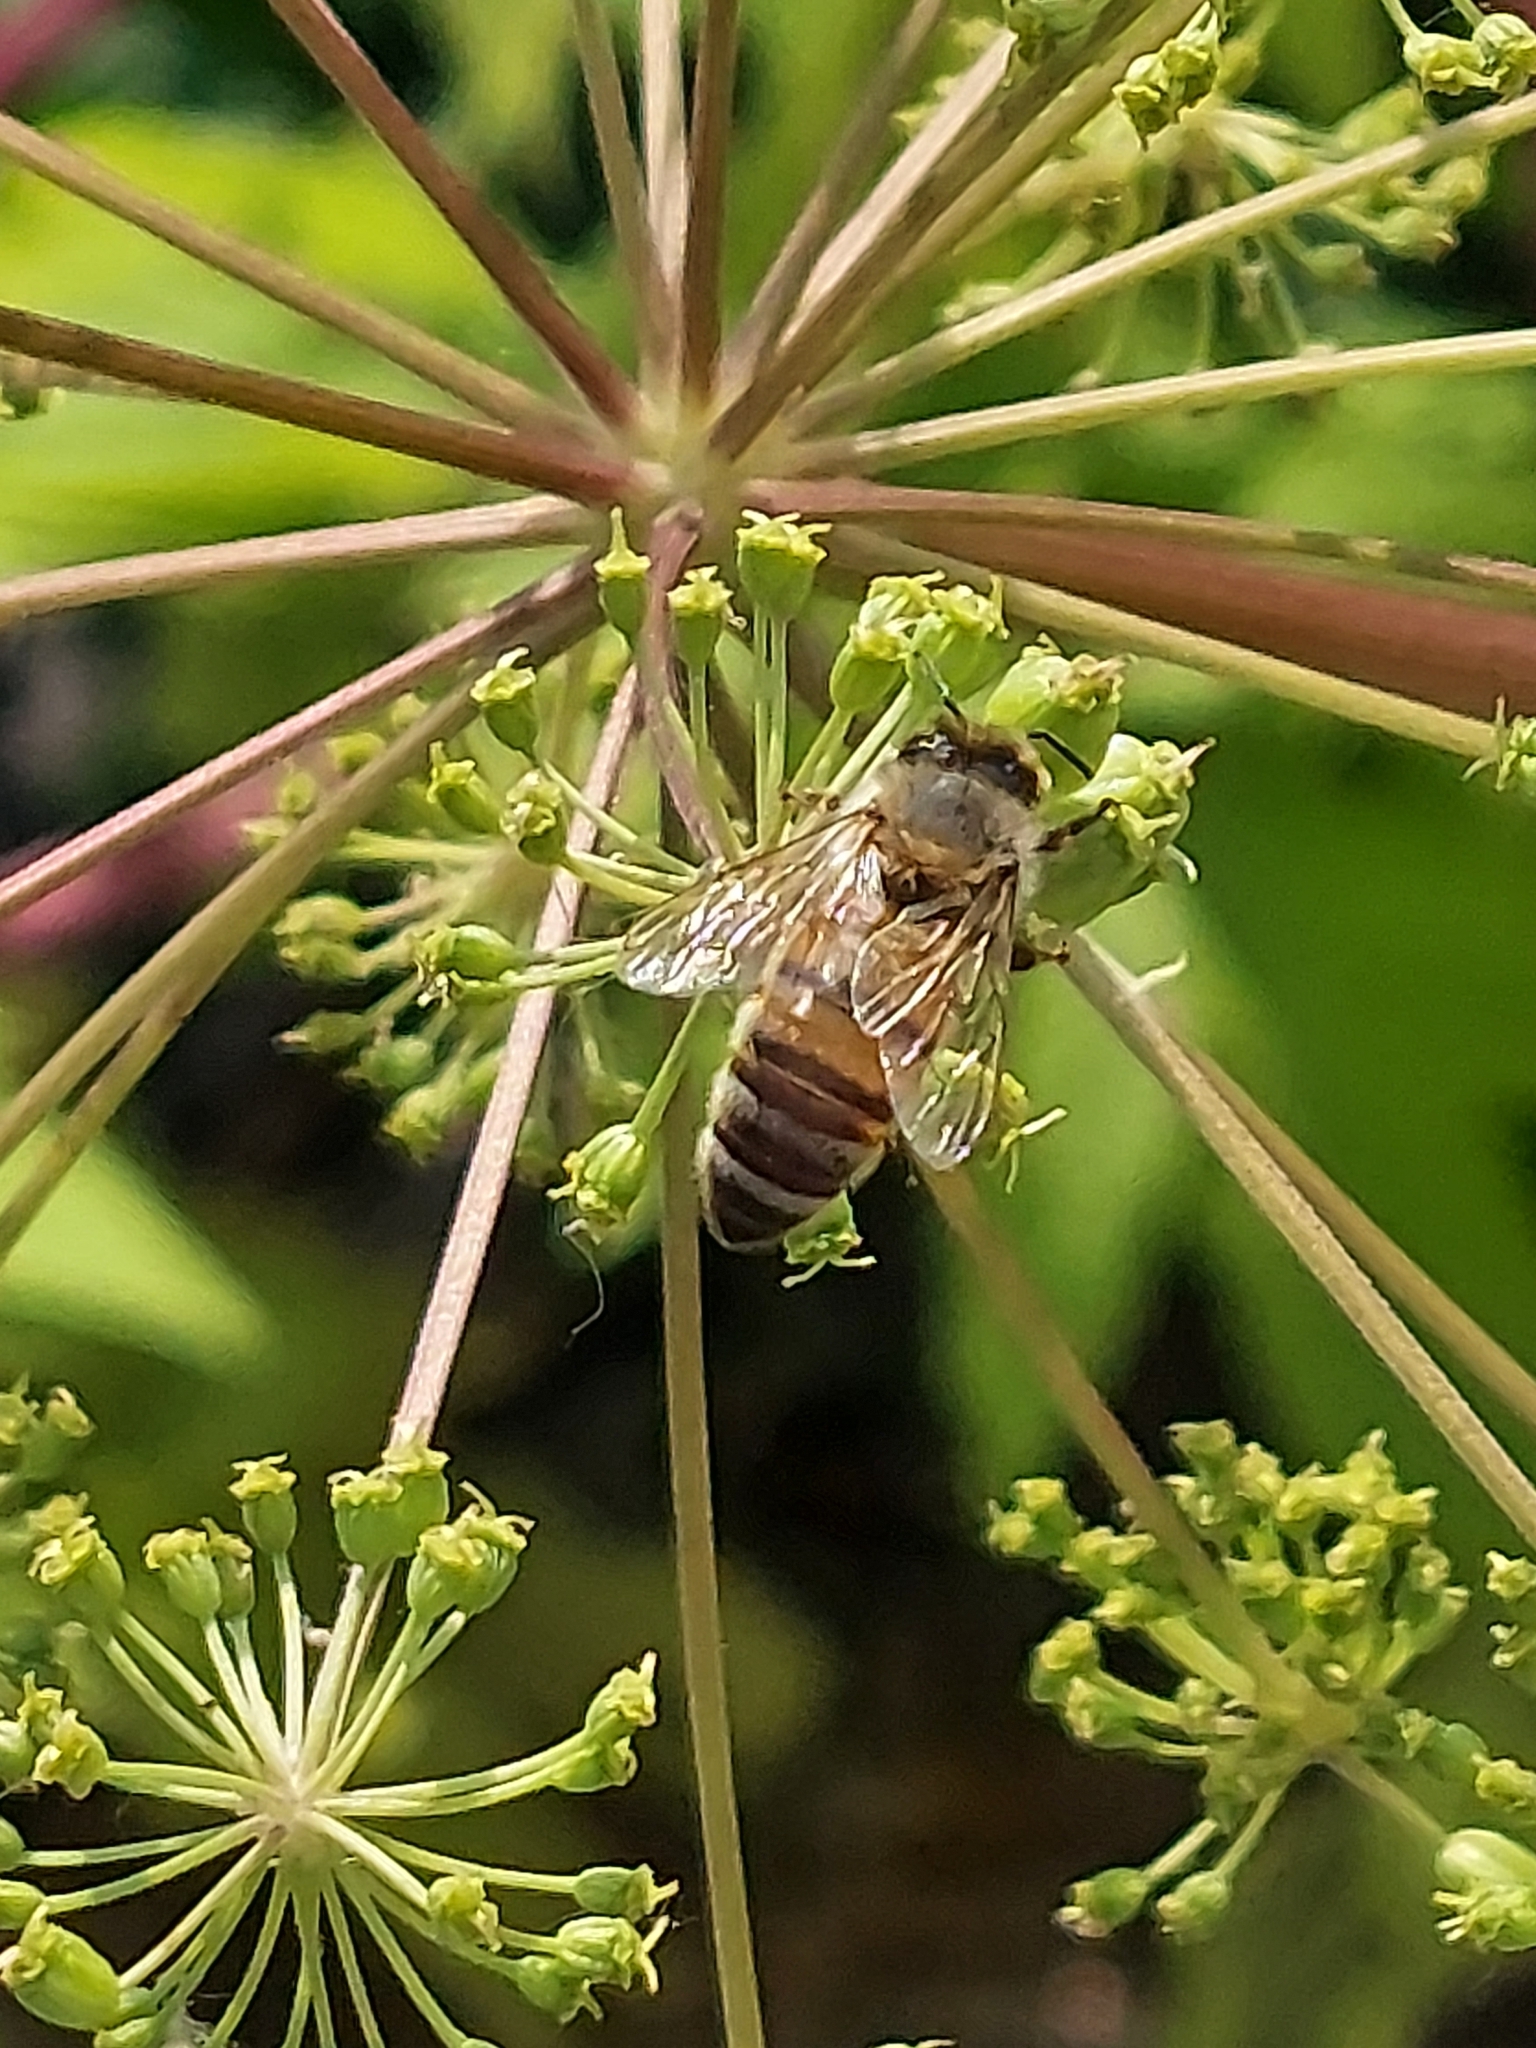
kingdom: Animalia
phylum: Arthropoda
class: Insecta
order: Hymenoptera
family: Apidae
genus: Apis
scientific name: Apis mellifera
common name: Honey bee
